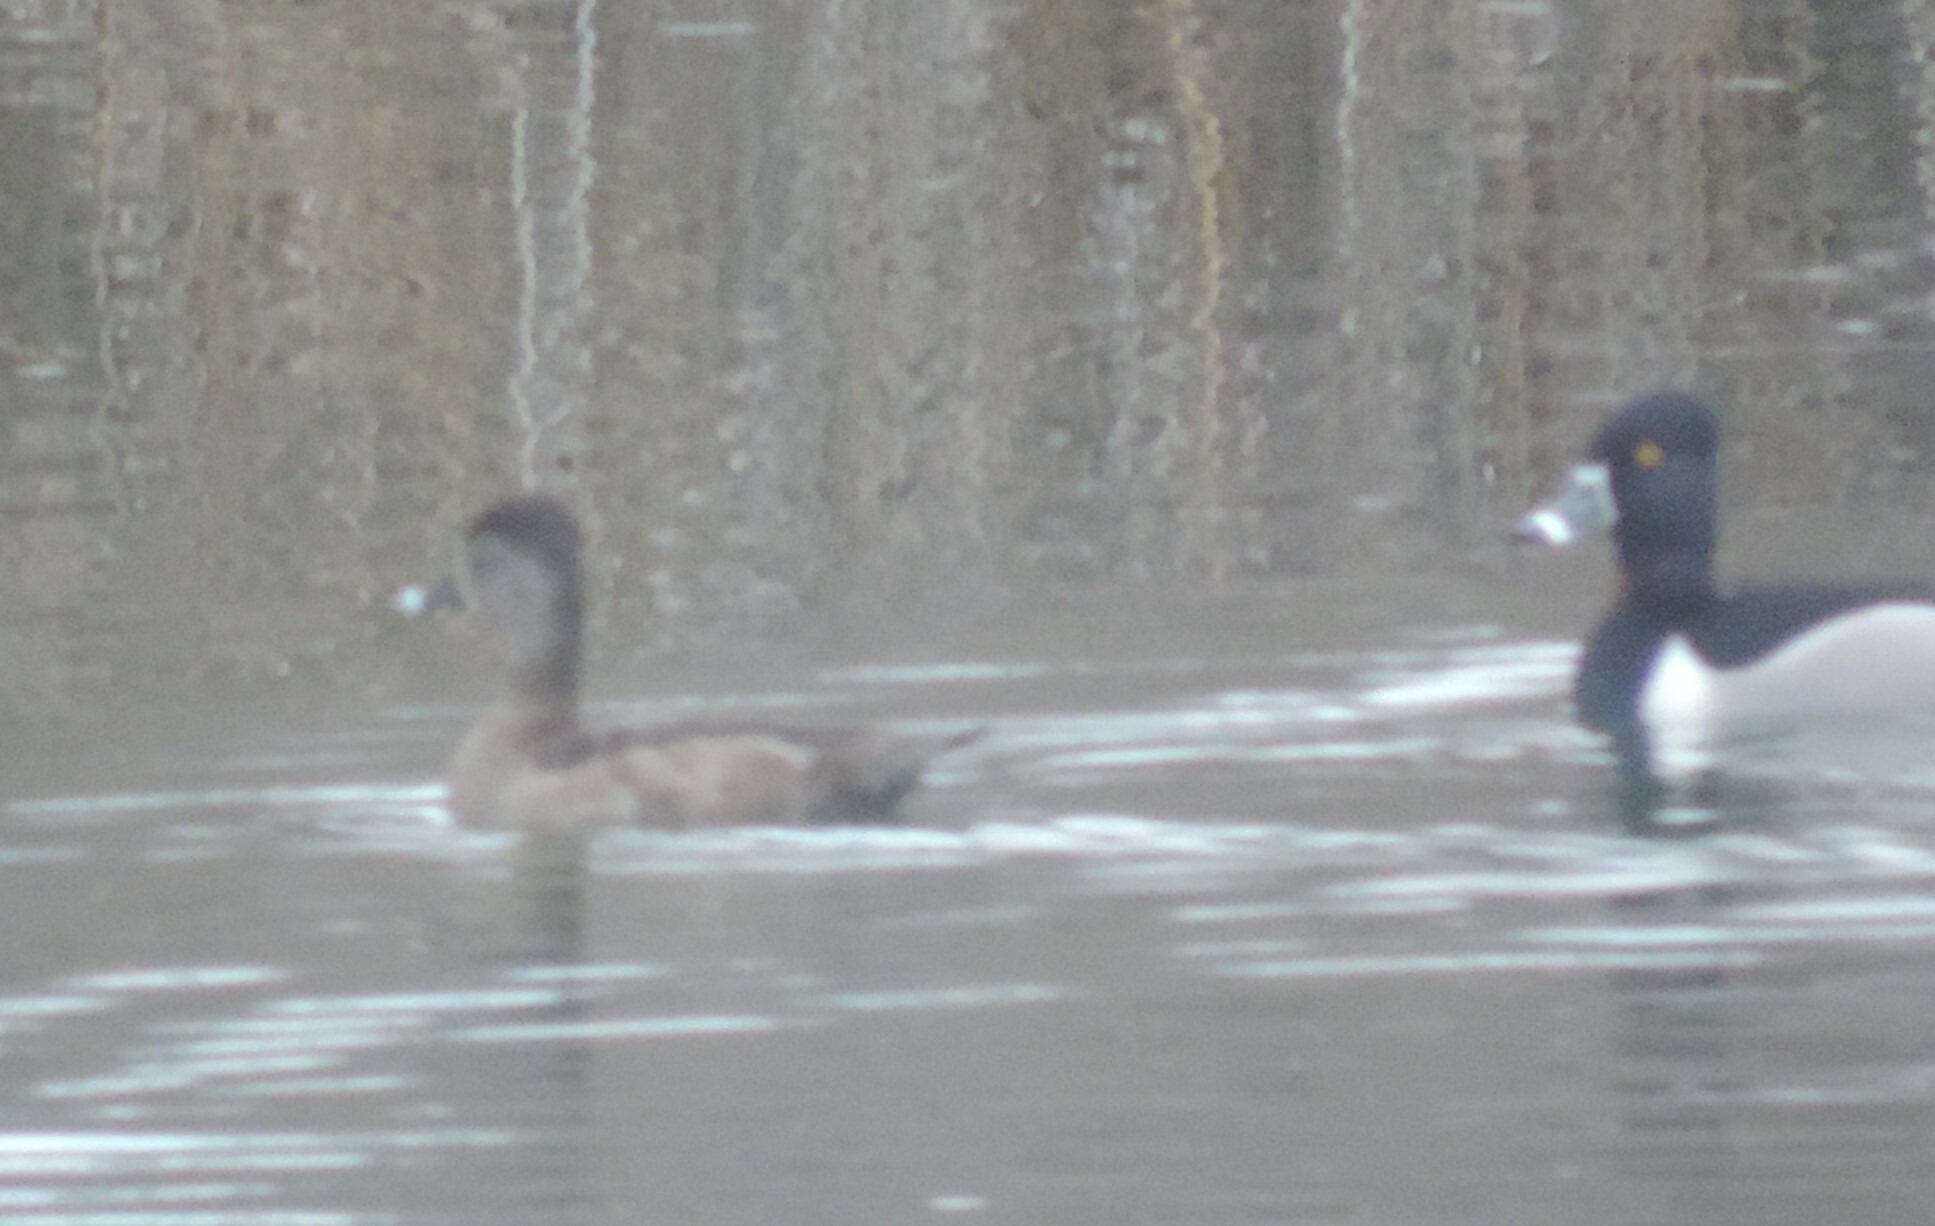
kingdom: Animalia
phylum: Chordata
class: Aves
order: Anseriformes
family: Anatidae
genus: Aythya
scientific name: Aythya collaris
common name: Ring-necked duck
